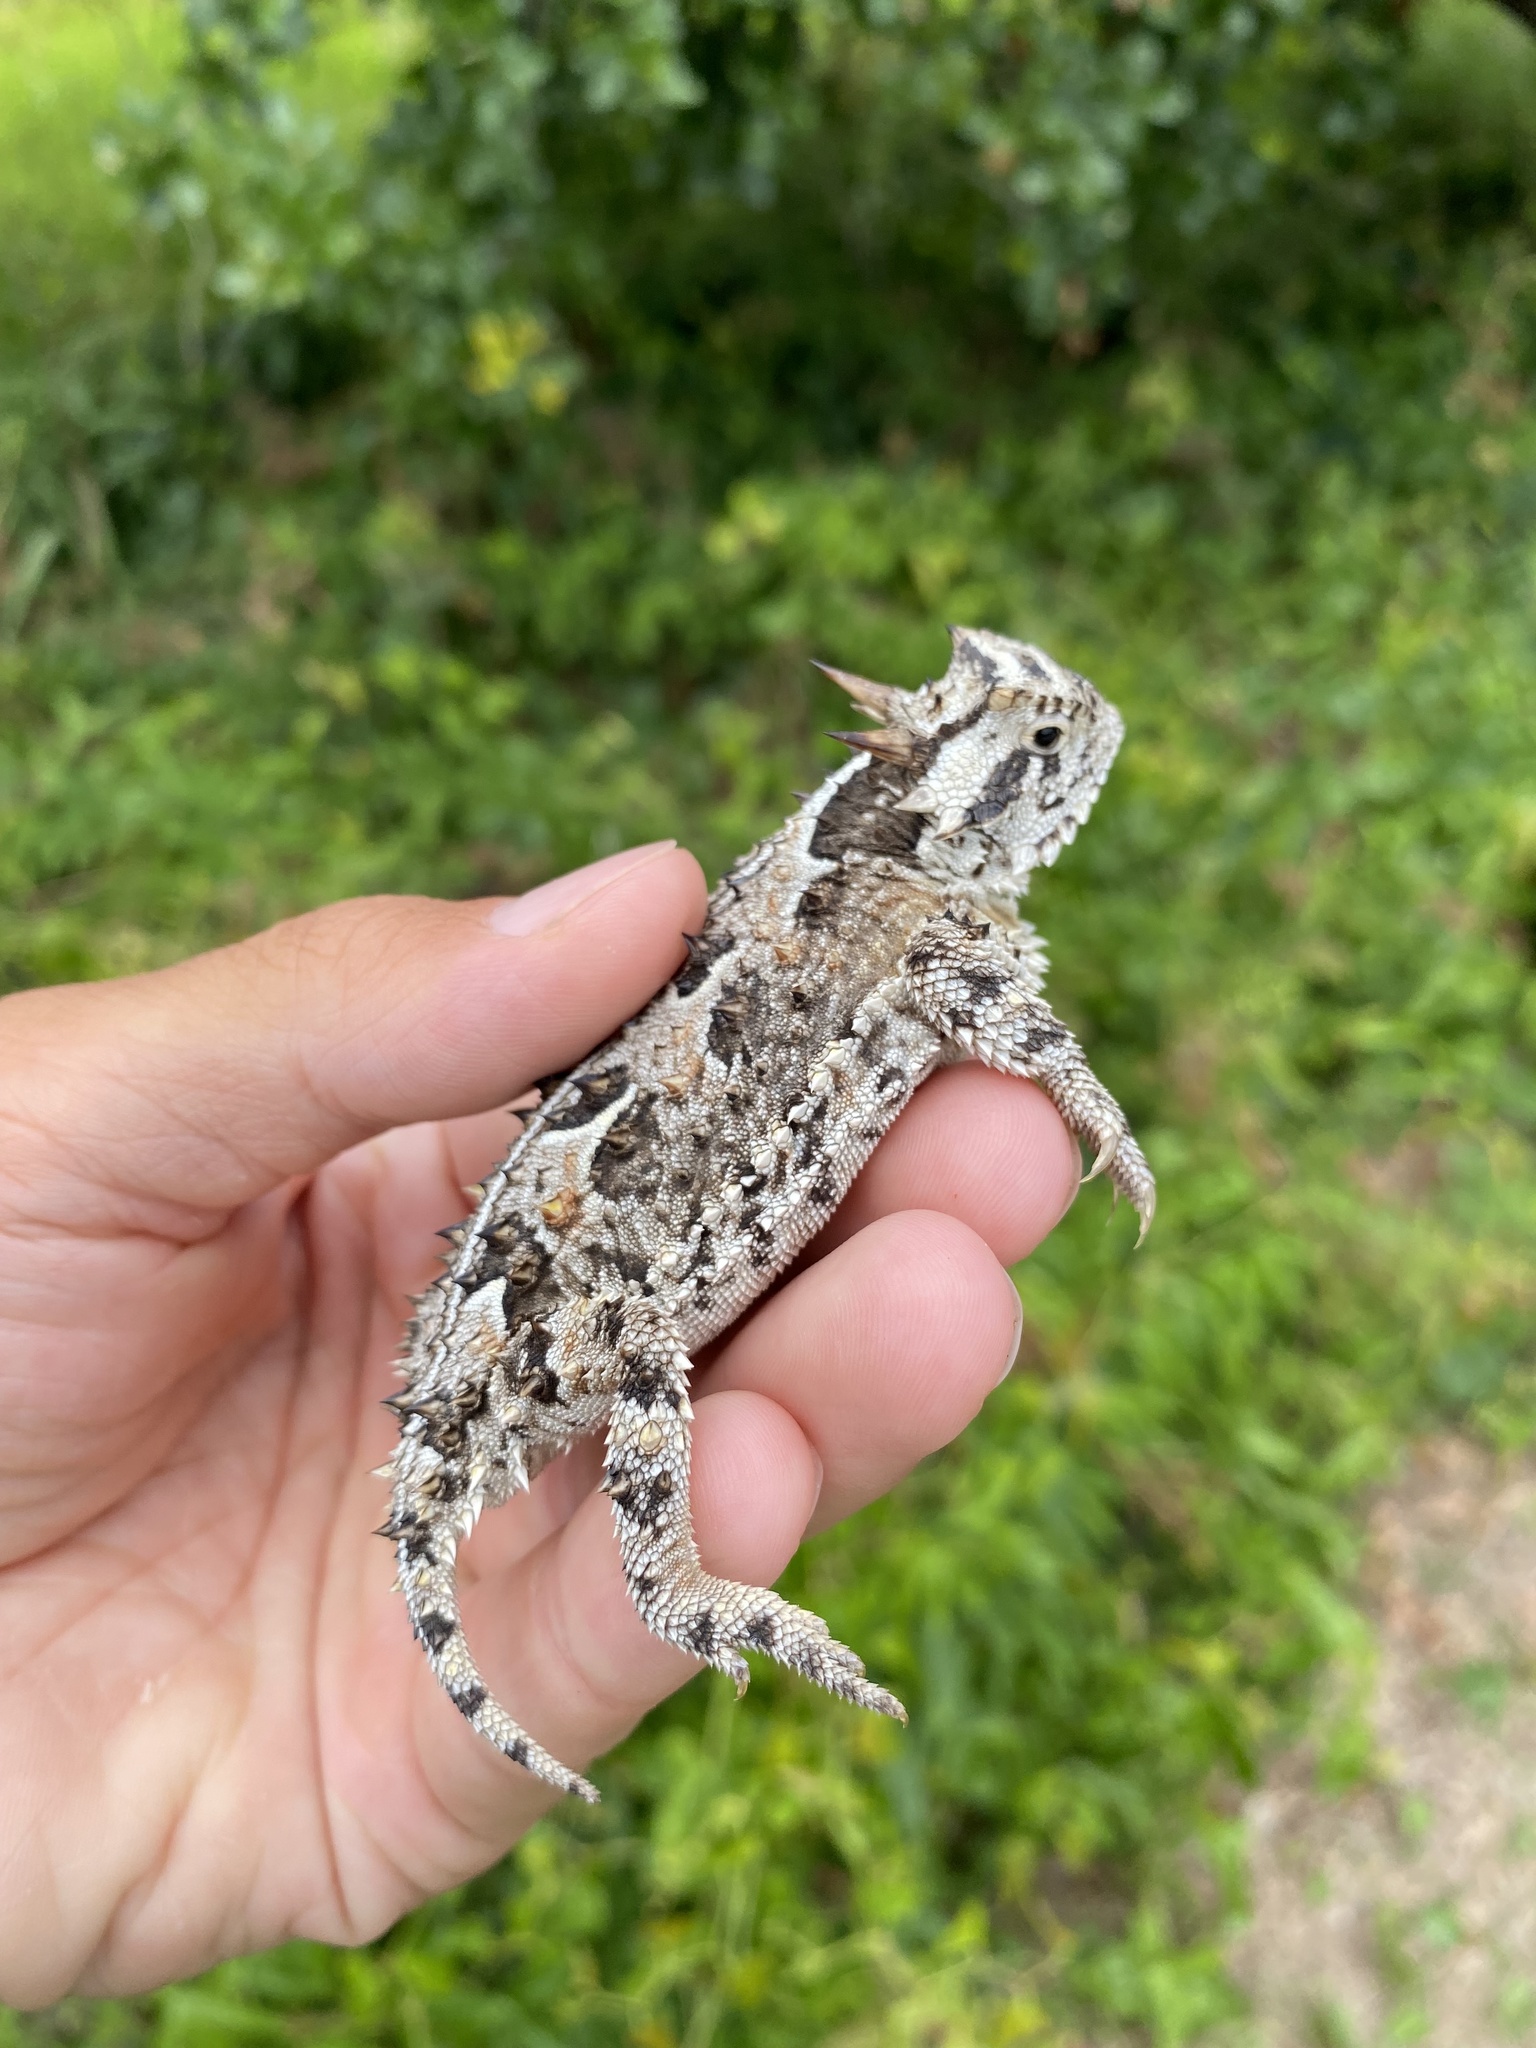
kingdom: Animalia
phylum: Chordata
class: Squamata
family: Phrynosomatidae
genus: Phrynosoma
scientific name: Phrynosoma cornutum
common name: Texas horned lizard
